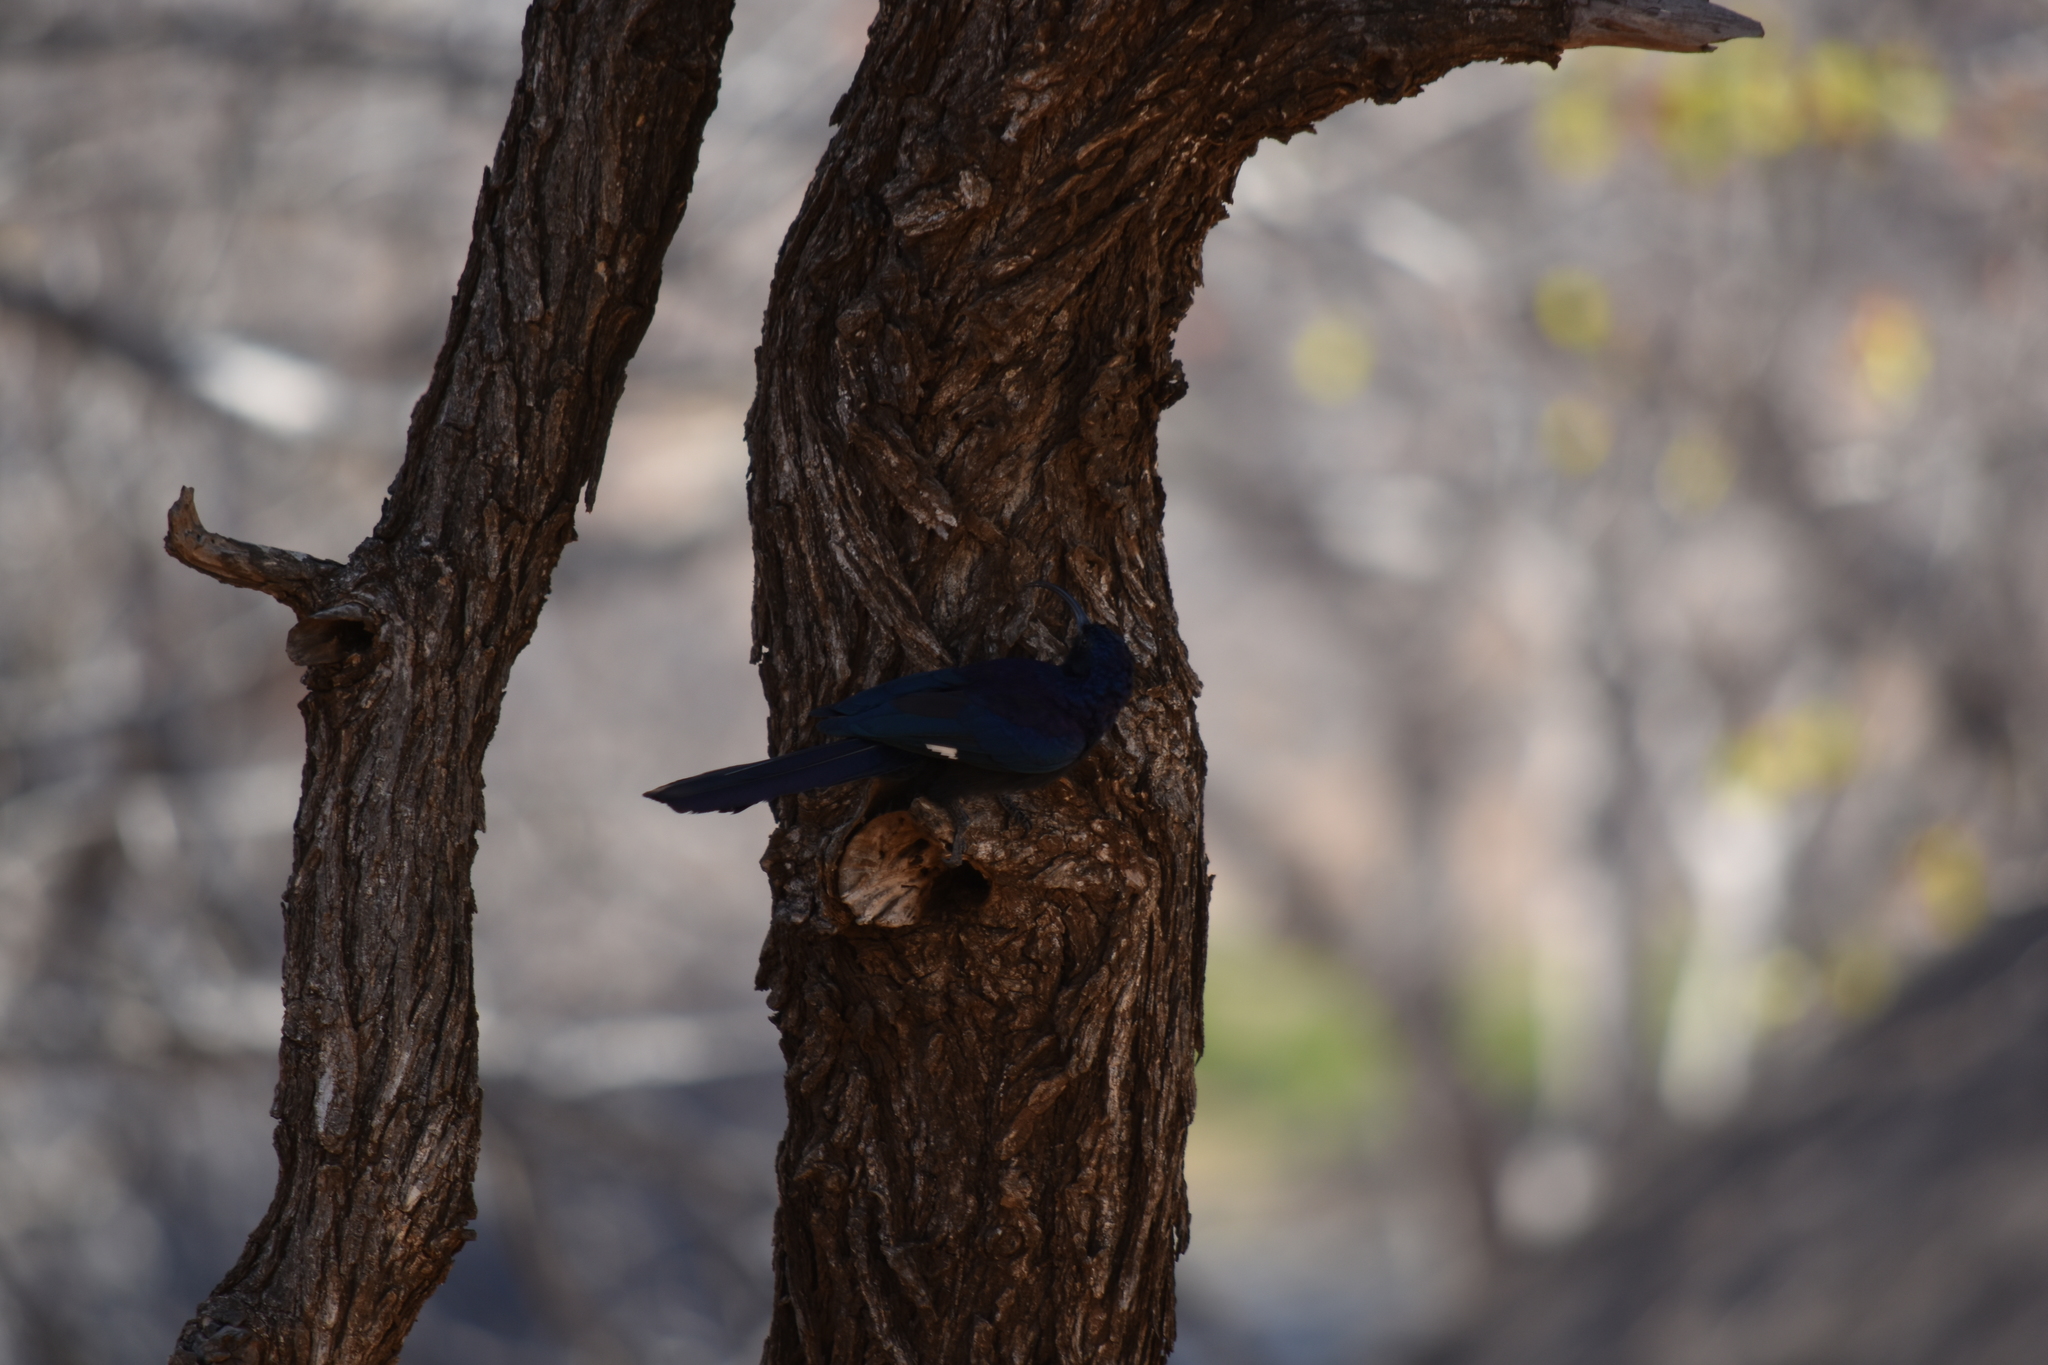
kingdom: Animalia
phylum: Chordata
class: Aves
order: Bucerotiformes
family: Phoeniculidae
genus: Rhinopomastus
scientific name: Rhinopomastus cyanomelas
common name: Common scimitarbill
